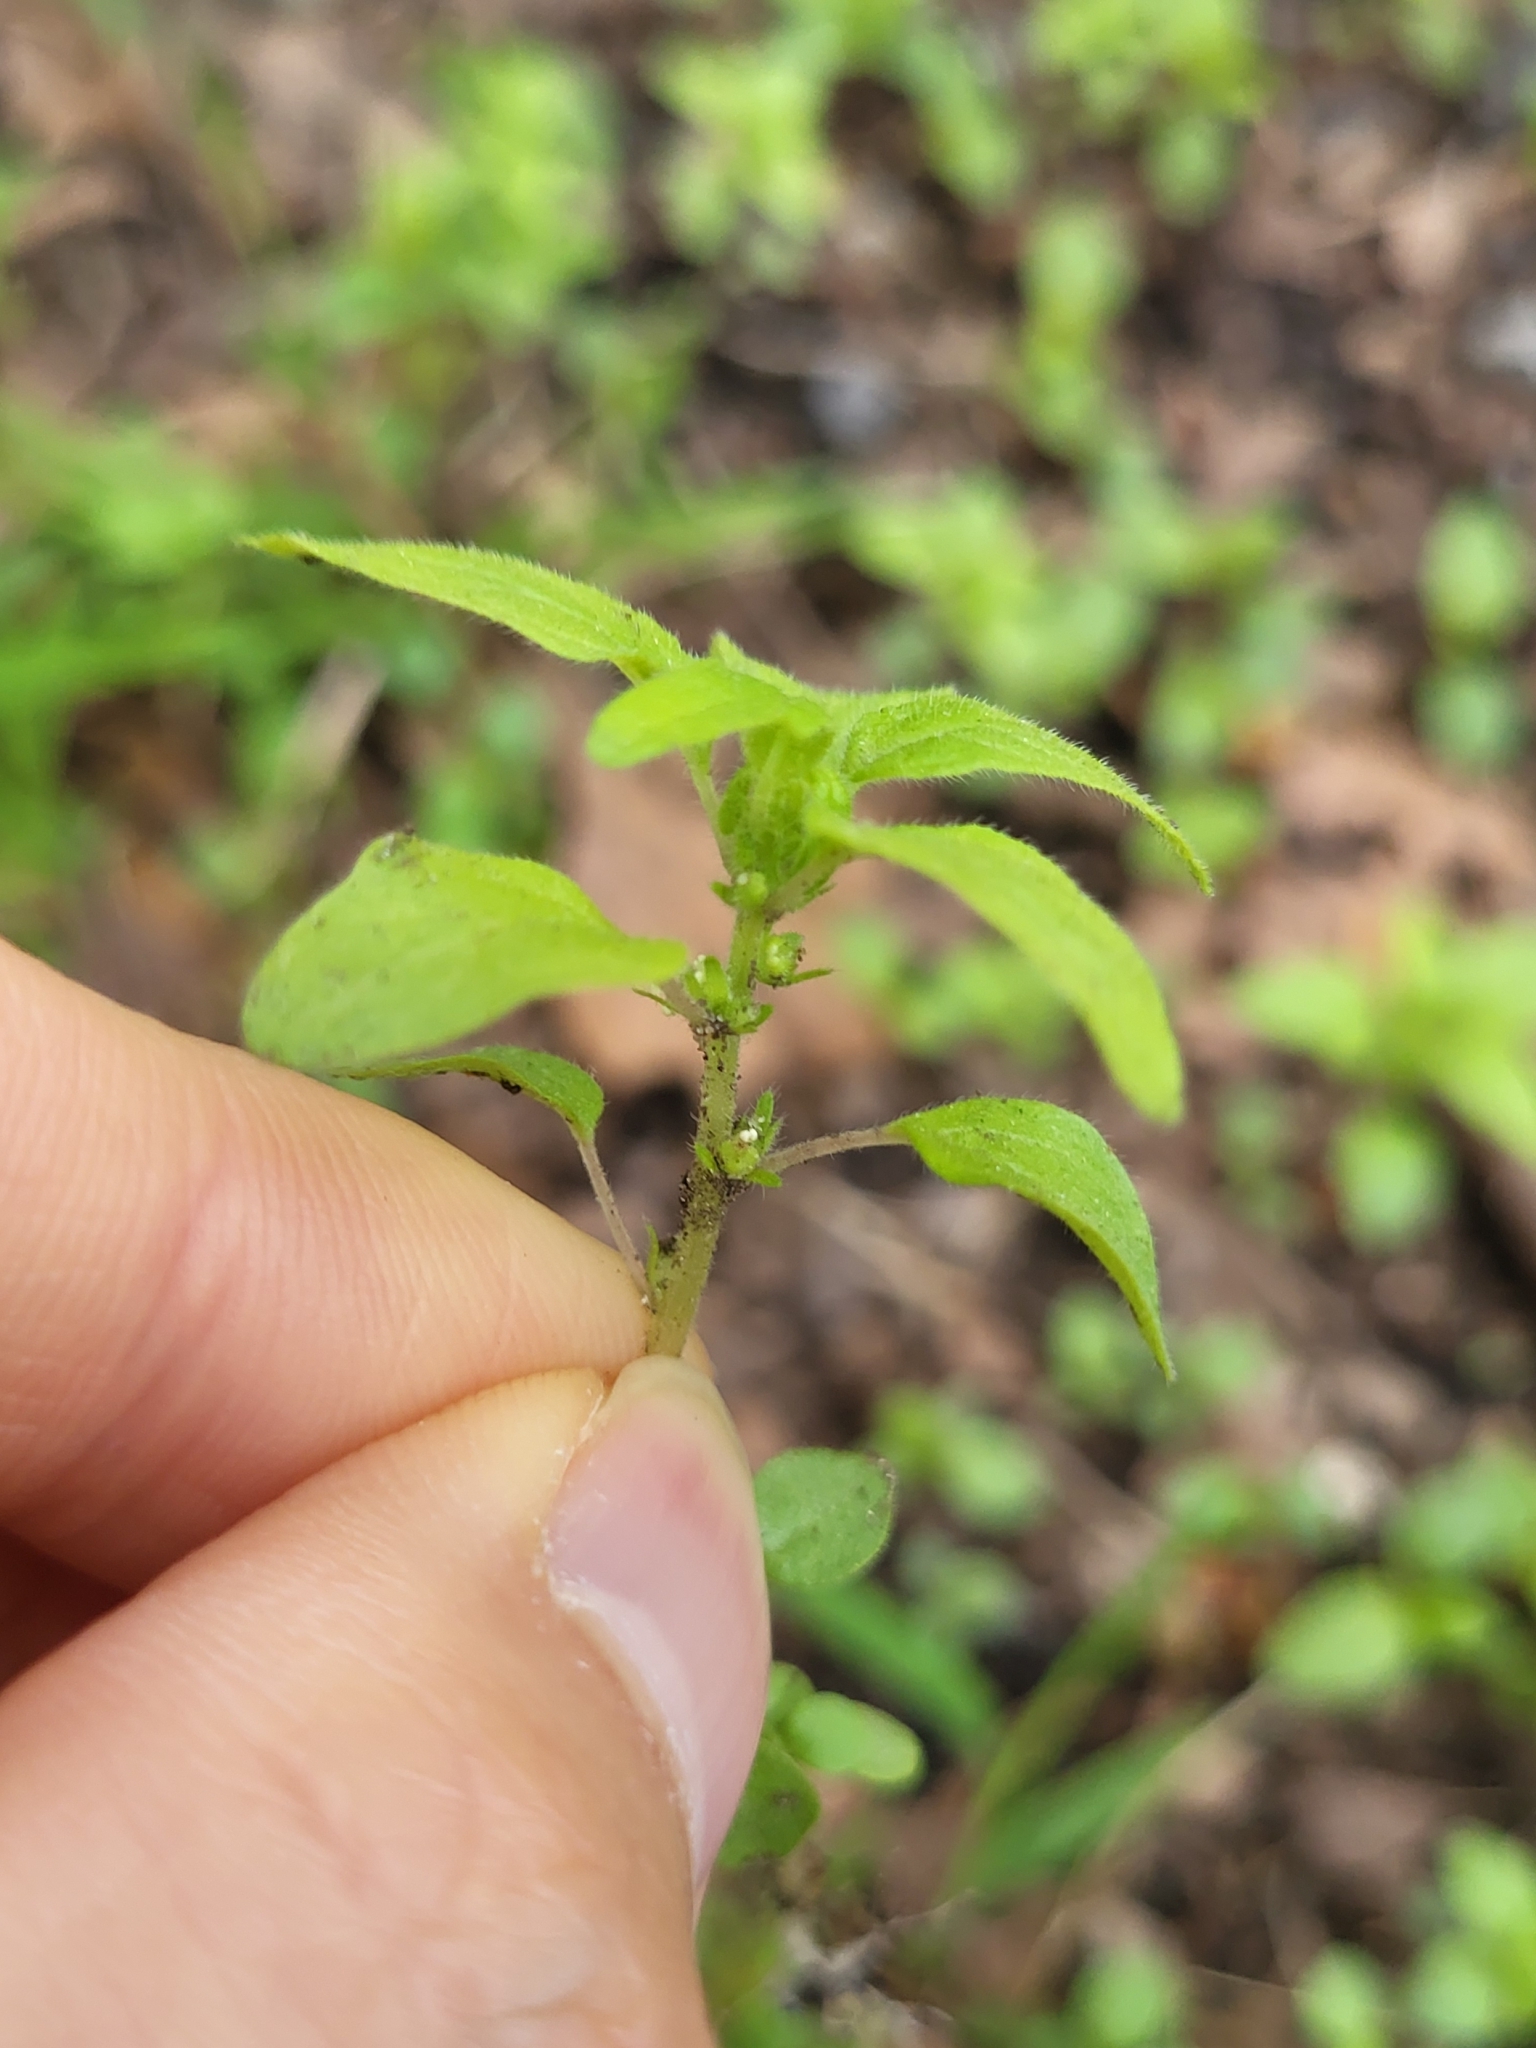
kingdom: Plantae
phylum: Tracheophyta
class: Magnoliopsida
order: Rosales
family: Urticaceae
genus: Parietaria
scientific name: Parietaria pensylvanica
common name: Pennsylvania pellitory
